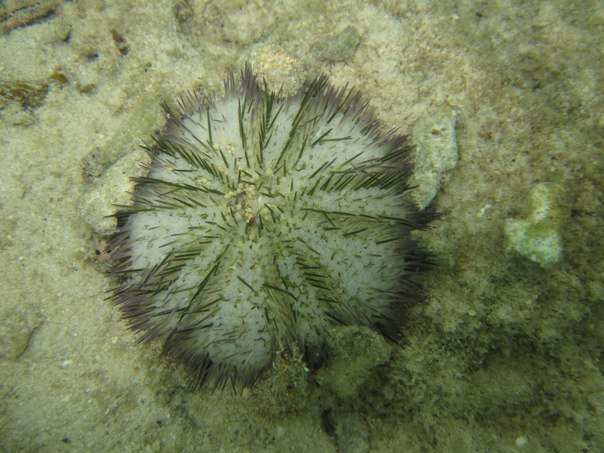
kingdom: Animalia
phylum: Echinodermata
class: Echinoidea
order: Camarodonta
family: Toxopneustidae
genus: Lytechinus
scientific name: Lytechinus variegatus
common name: Variegated urchin
